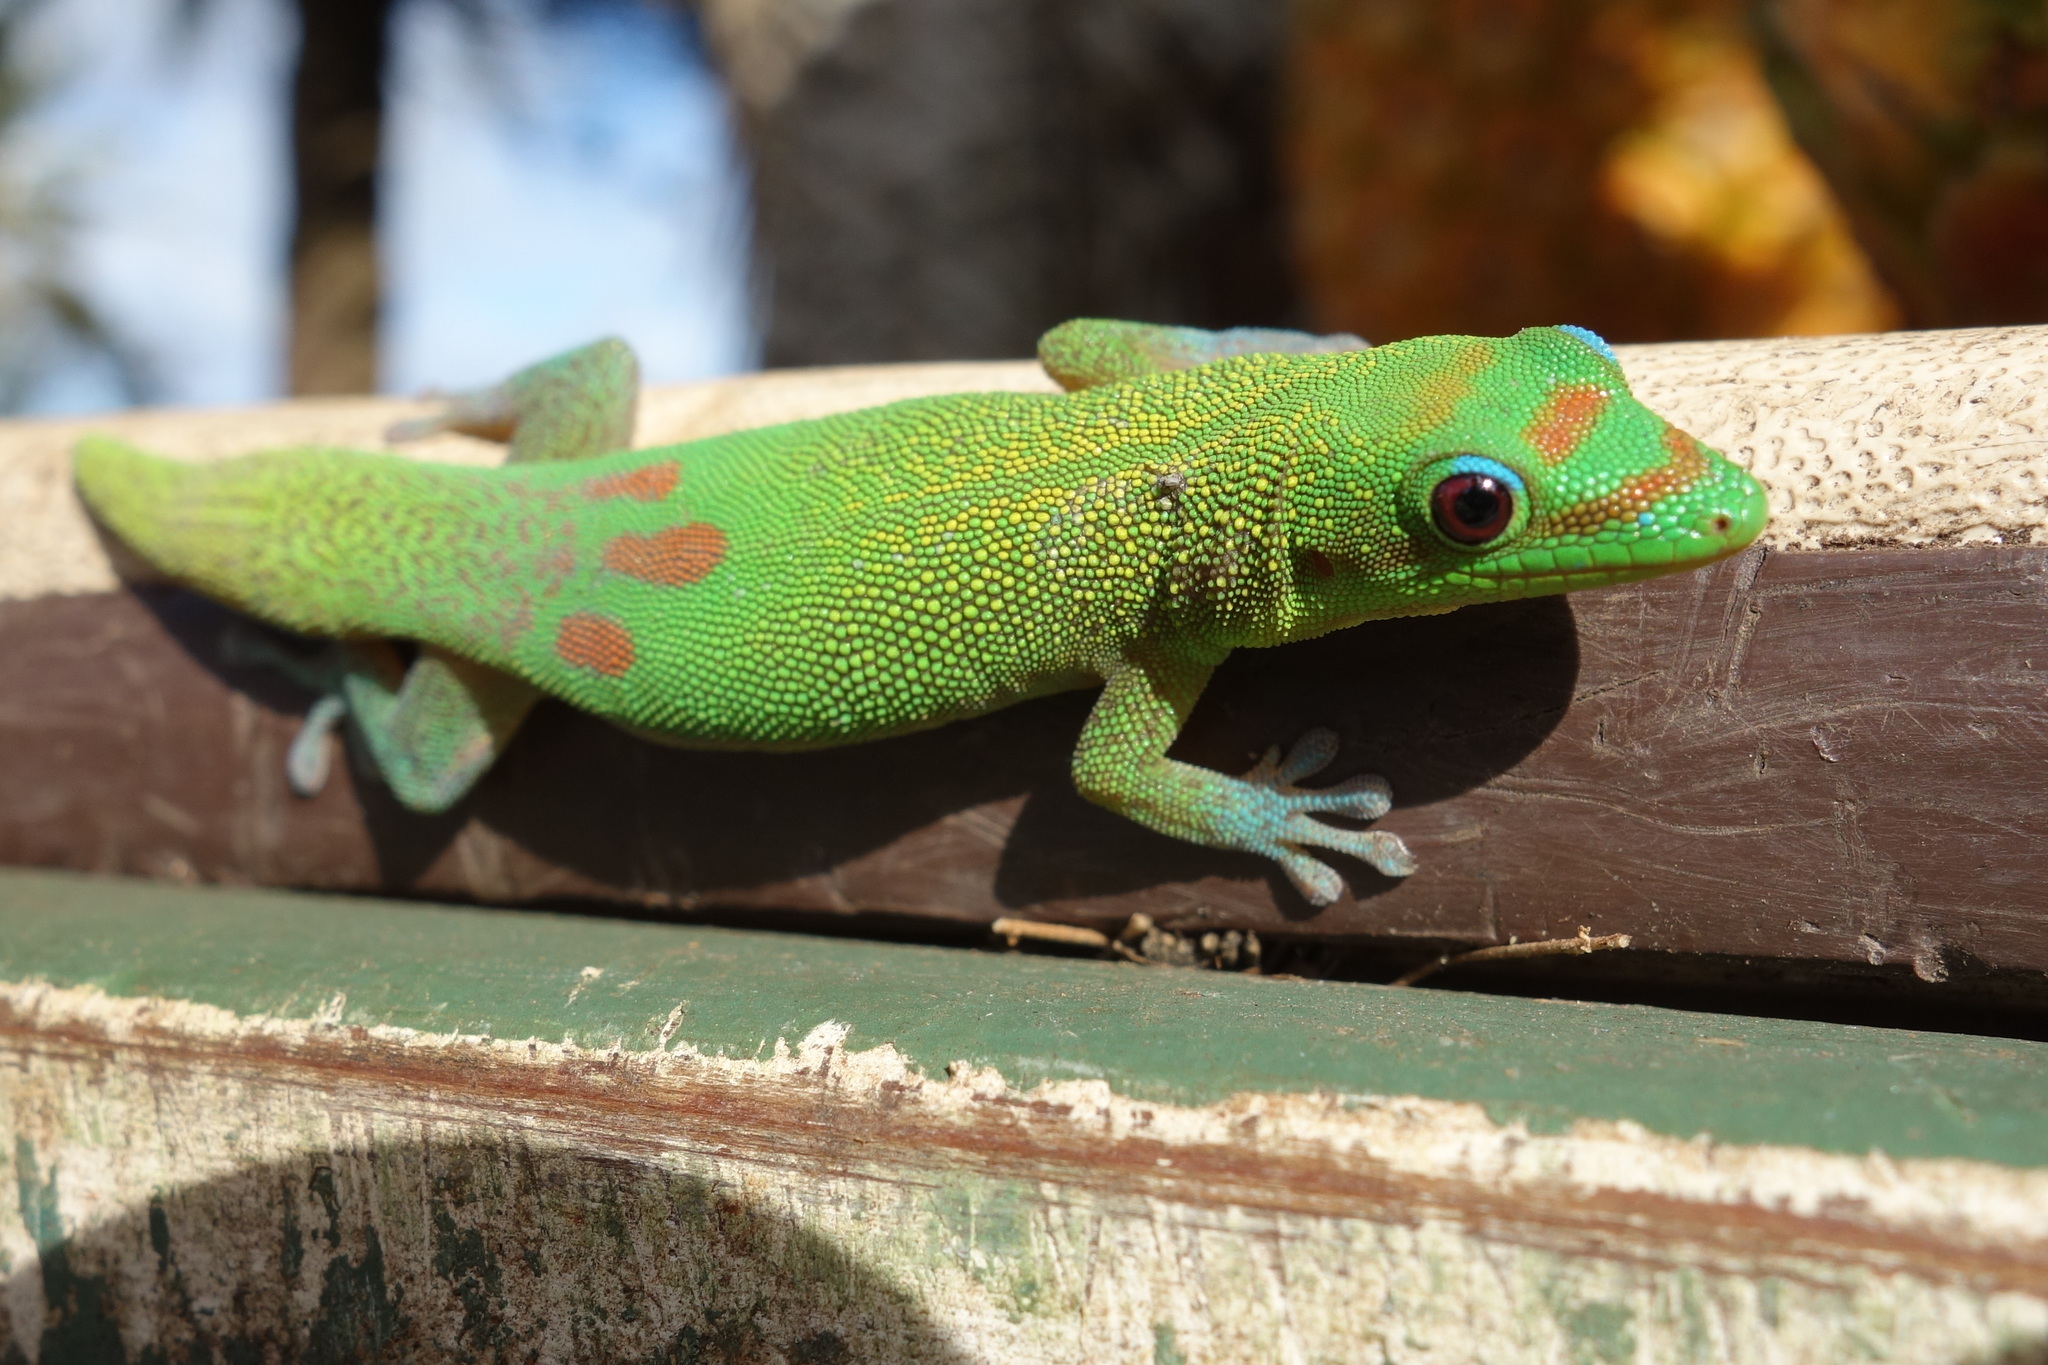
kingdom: Animalia
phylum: Chordata
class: Squamata
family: Gekkonidae
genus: Phelsuma
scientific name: Phelsuma laticauda
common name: Gold dust day gecko
